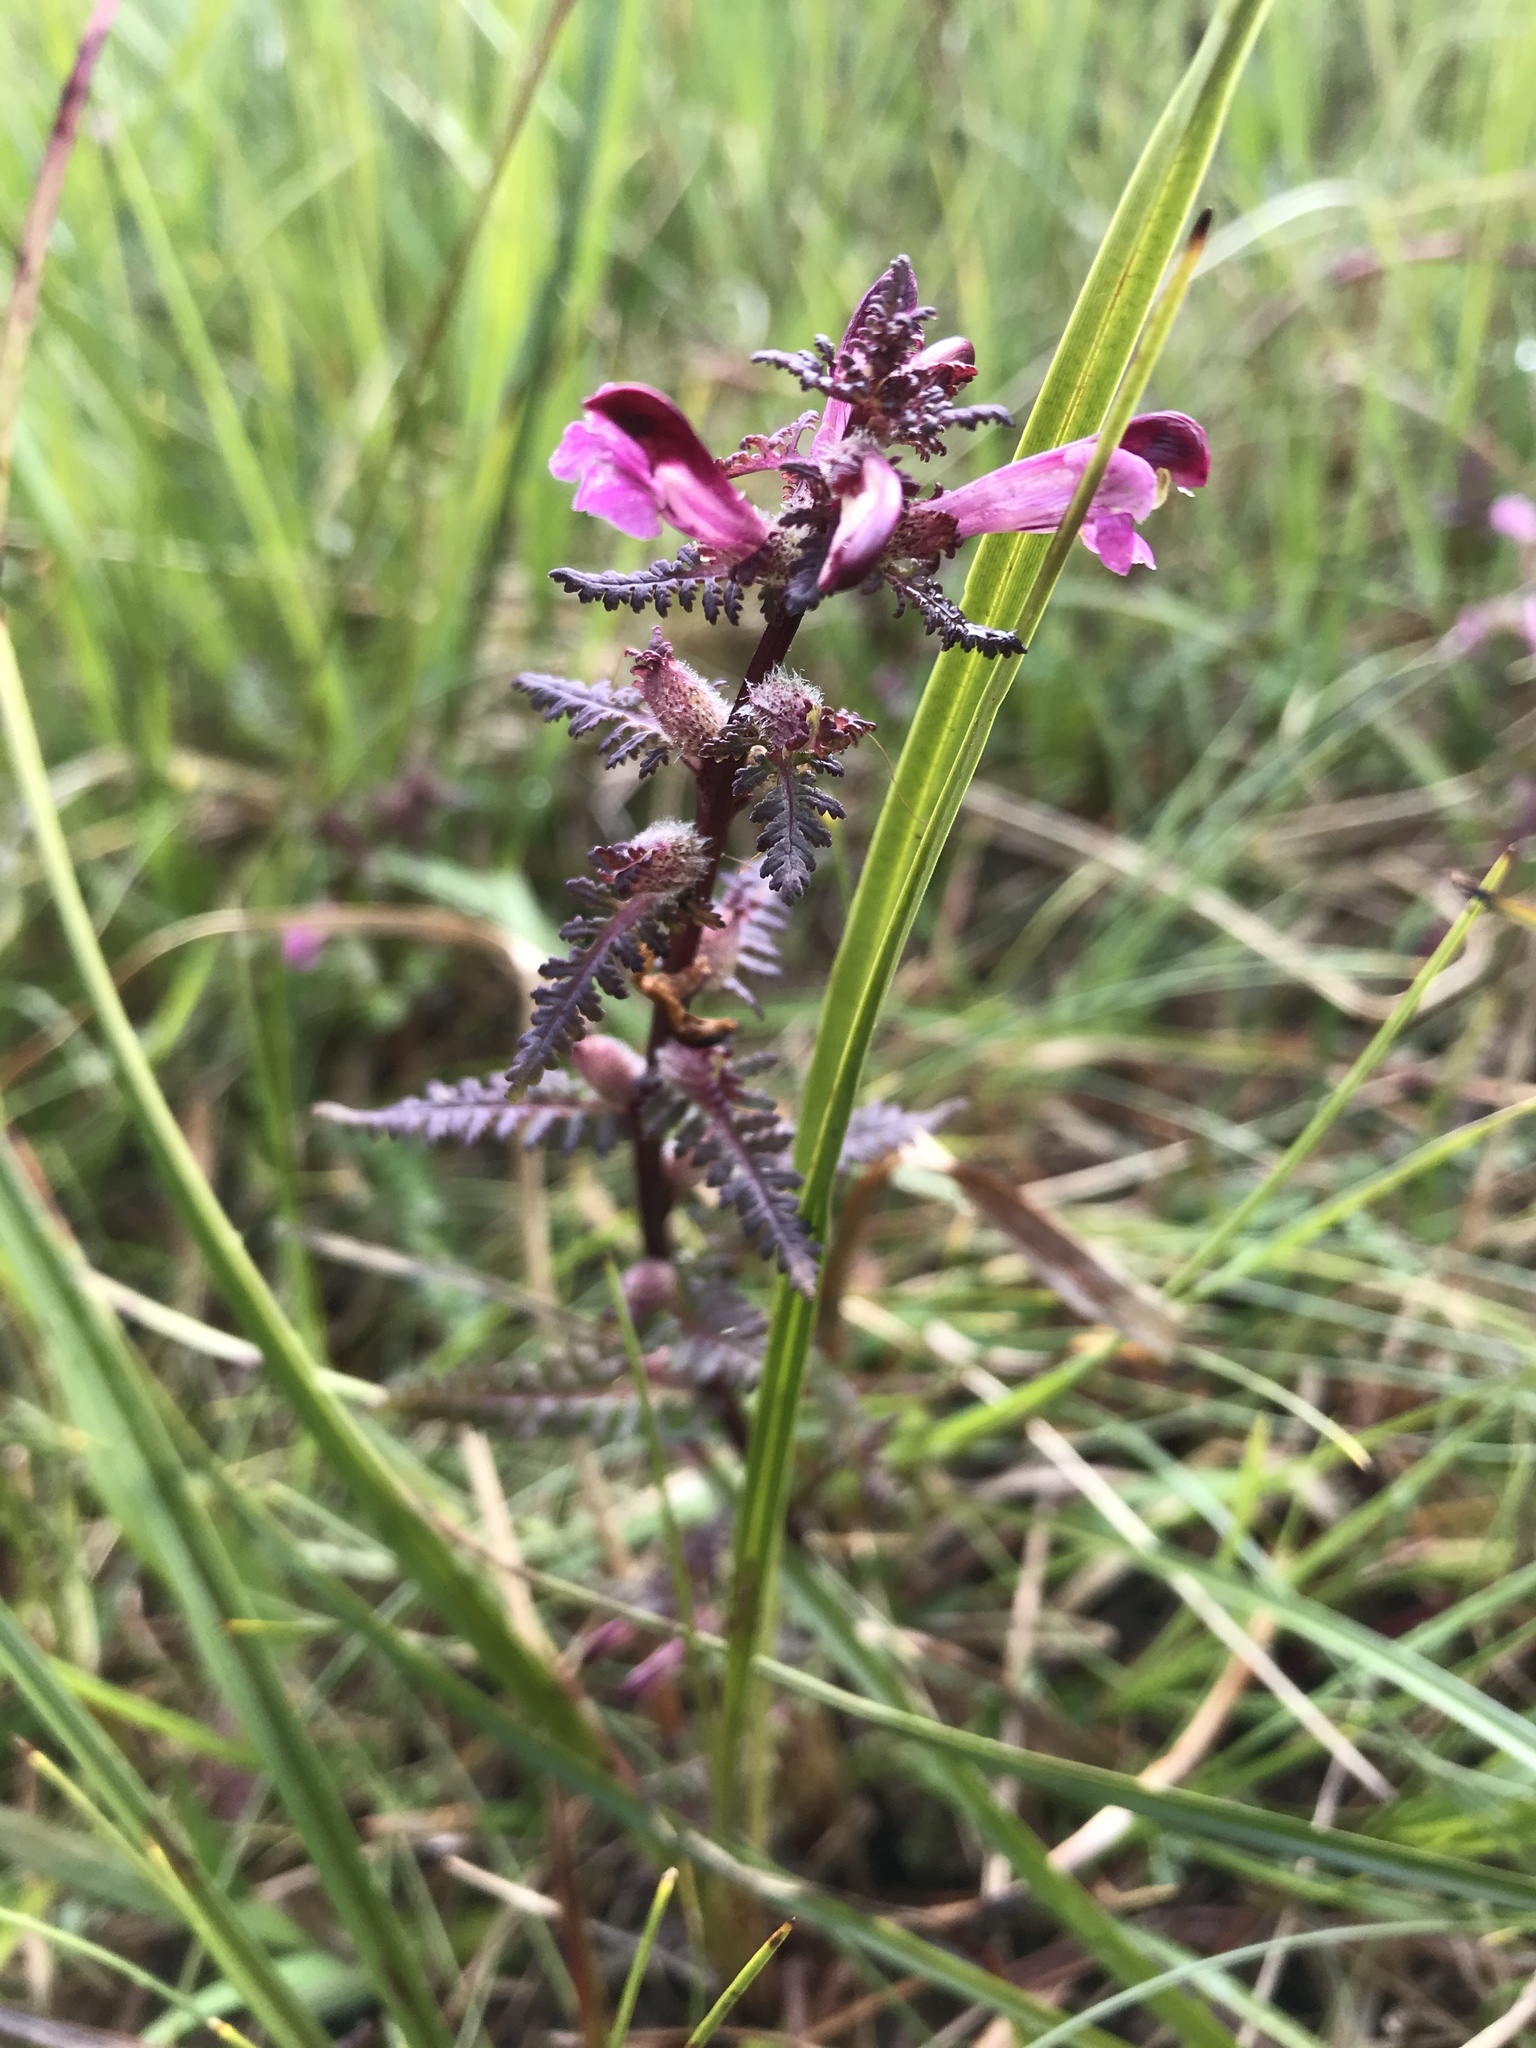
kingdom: Plantae
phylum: Tracheophyta
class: Magnoliopsida
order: Lamiales
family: Orobanchaceae
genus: Pedicularis
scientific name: Pedicularis palustris
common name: Marsh lousewort
